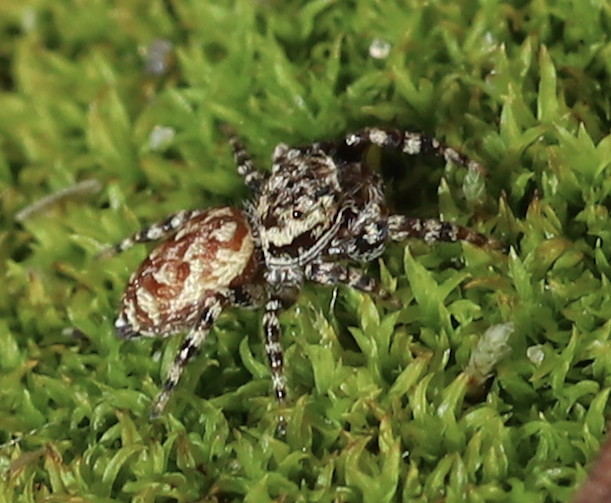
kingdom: Animalia
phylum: Arthropoda
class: Arachnida
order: Araneae
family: Salticidae
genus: Pelegrina
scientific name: Pelegrina galathea
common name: Jumping spiders
